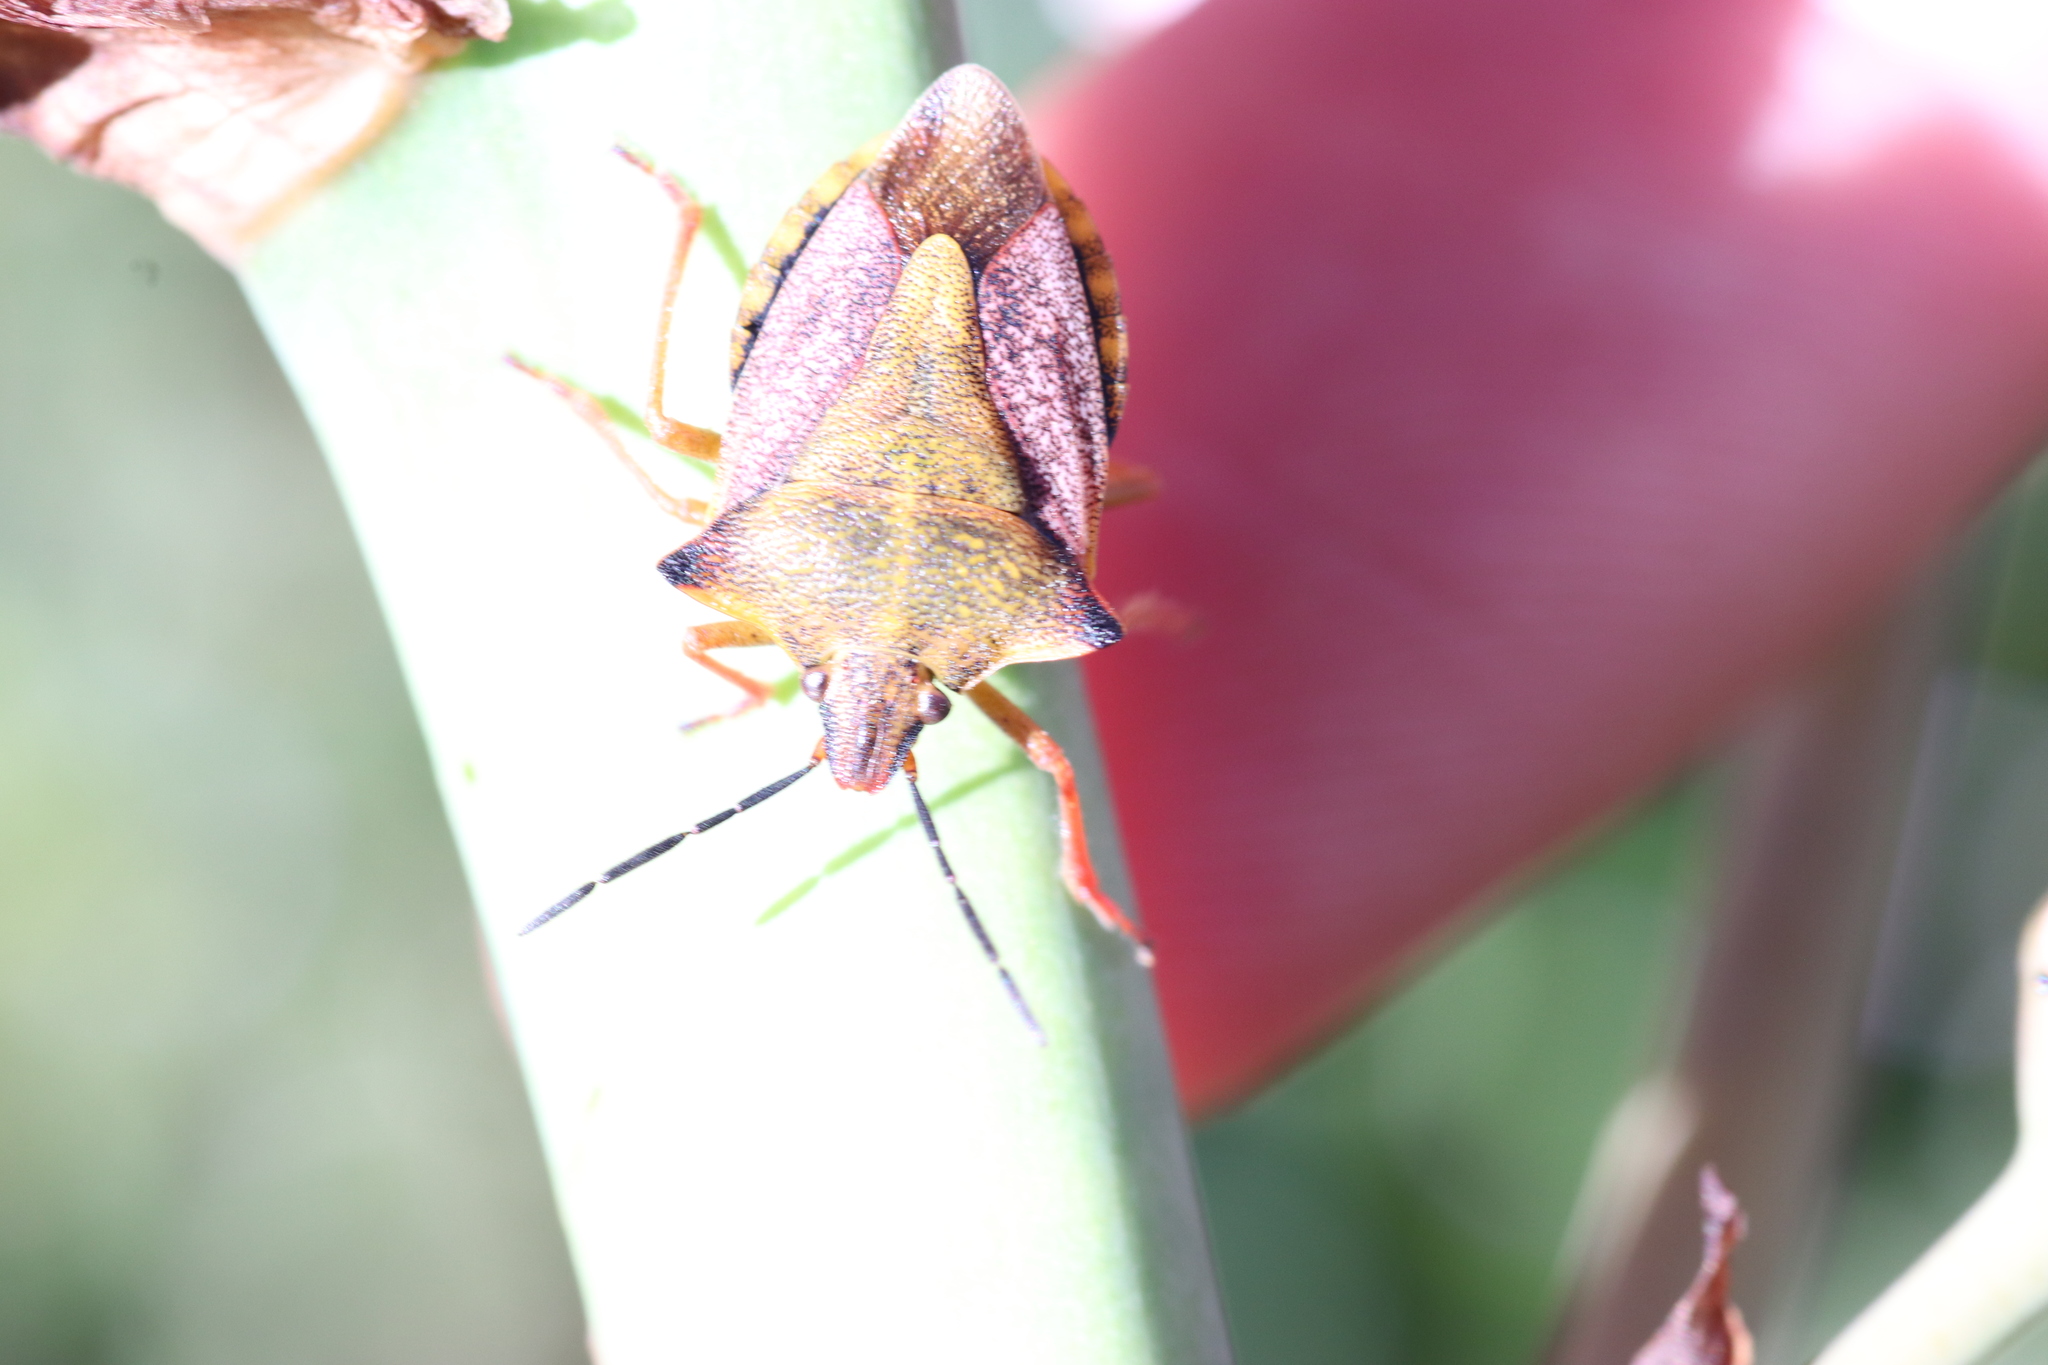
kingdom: Animalia
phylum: Arthropoda
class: Insecta
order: Hemiptera
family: Pentatomidae
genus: Carpocoris
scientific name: Carpocoris mediterraneus
